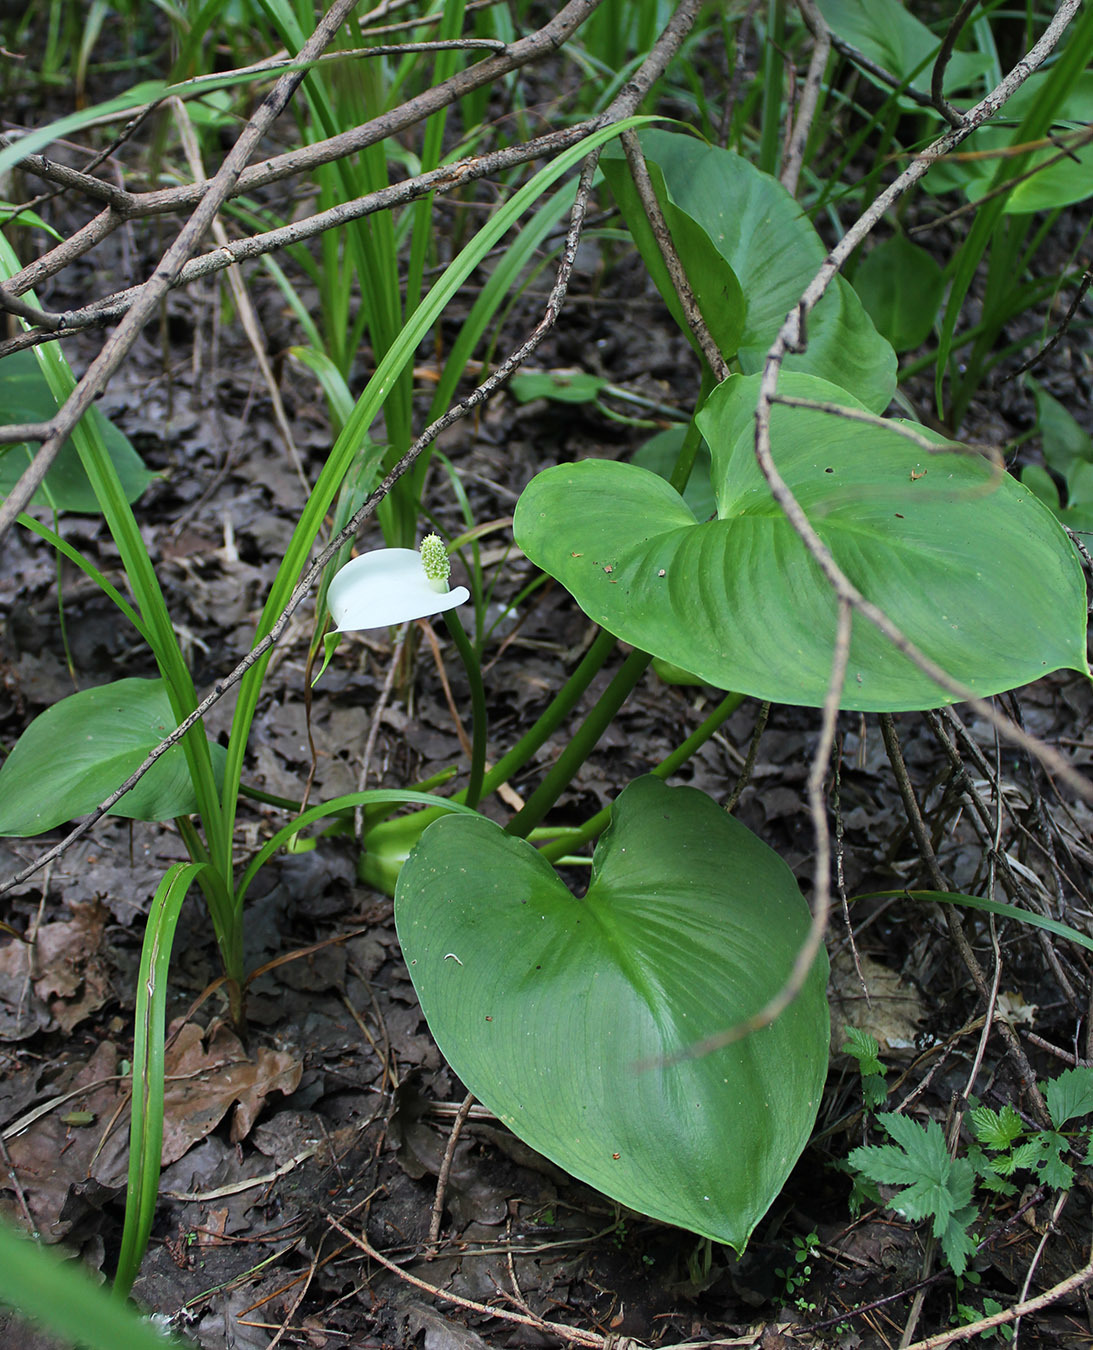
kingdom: Plantae
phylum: Tracheophyta
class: Liliopsida
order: Alismatales
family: Araceae
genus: Calla
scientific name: Calla palustris
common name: Bog arum
